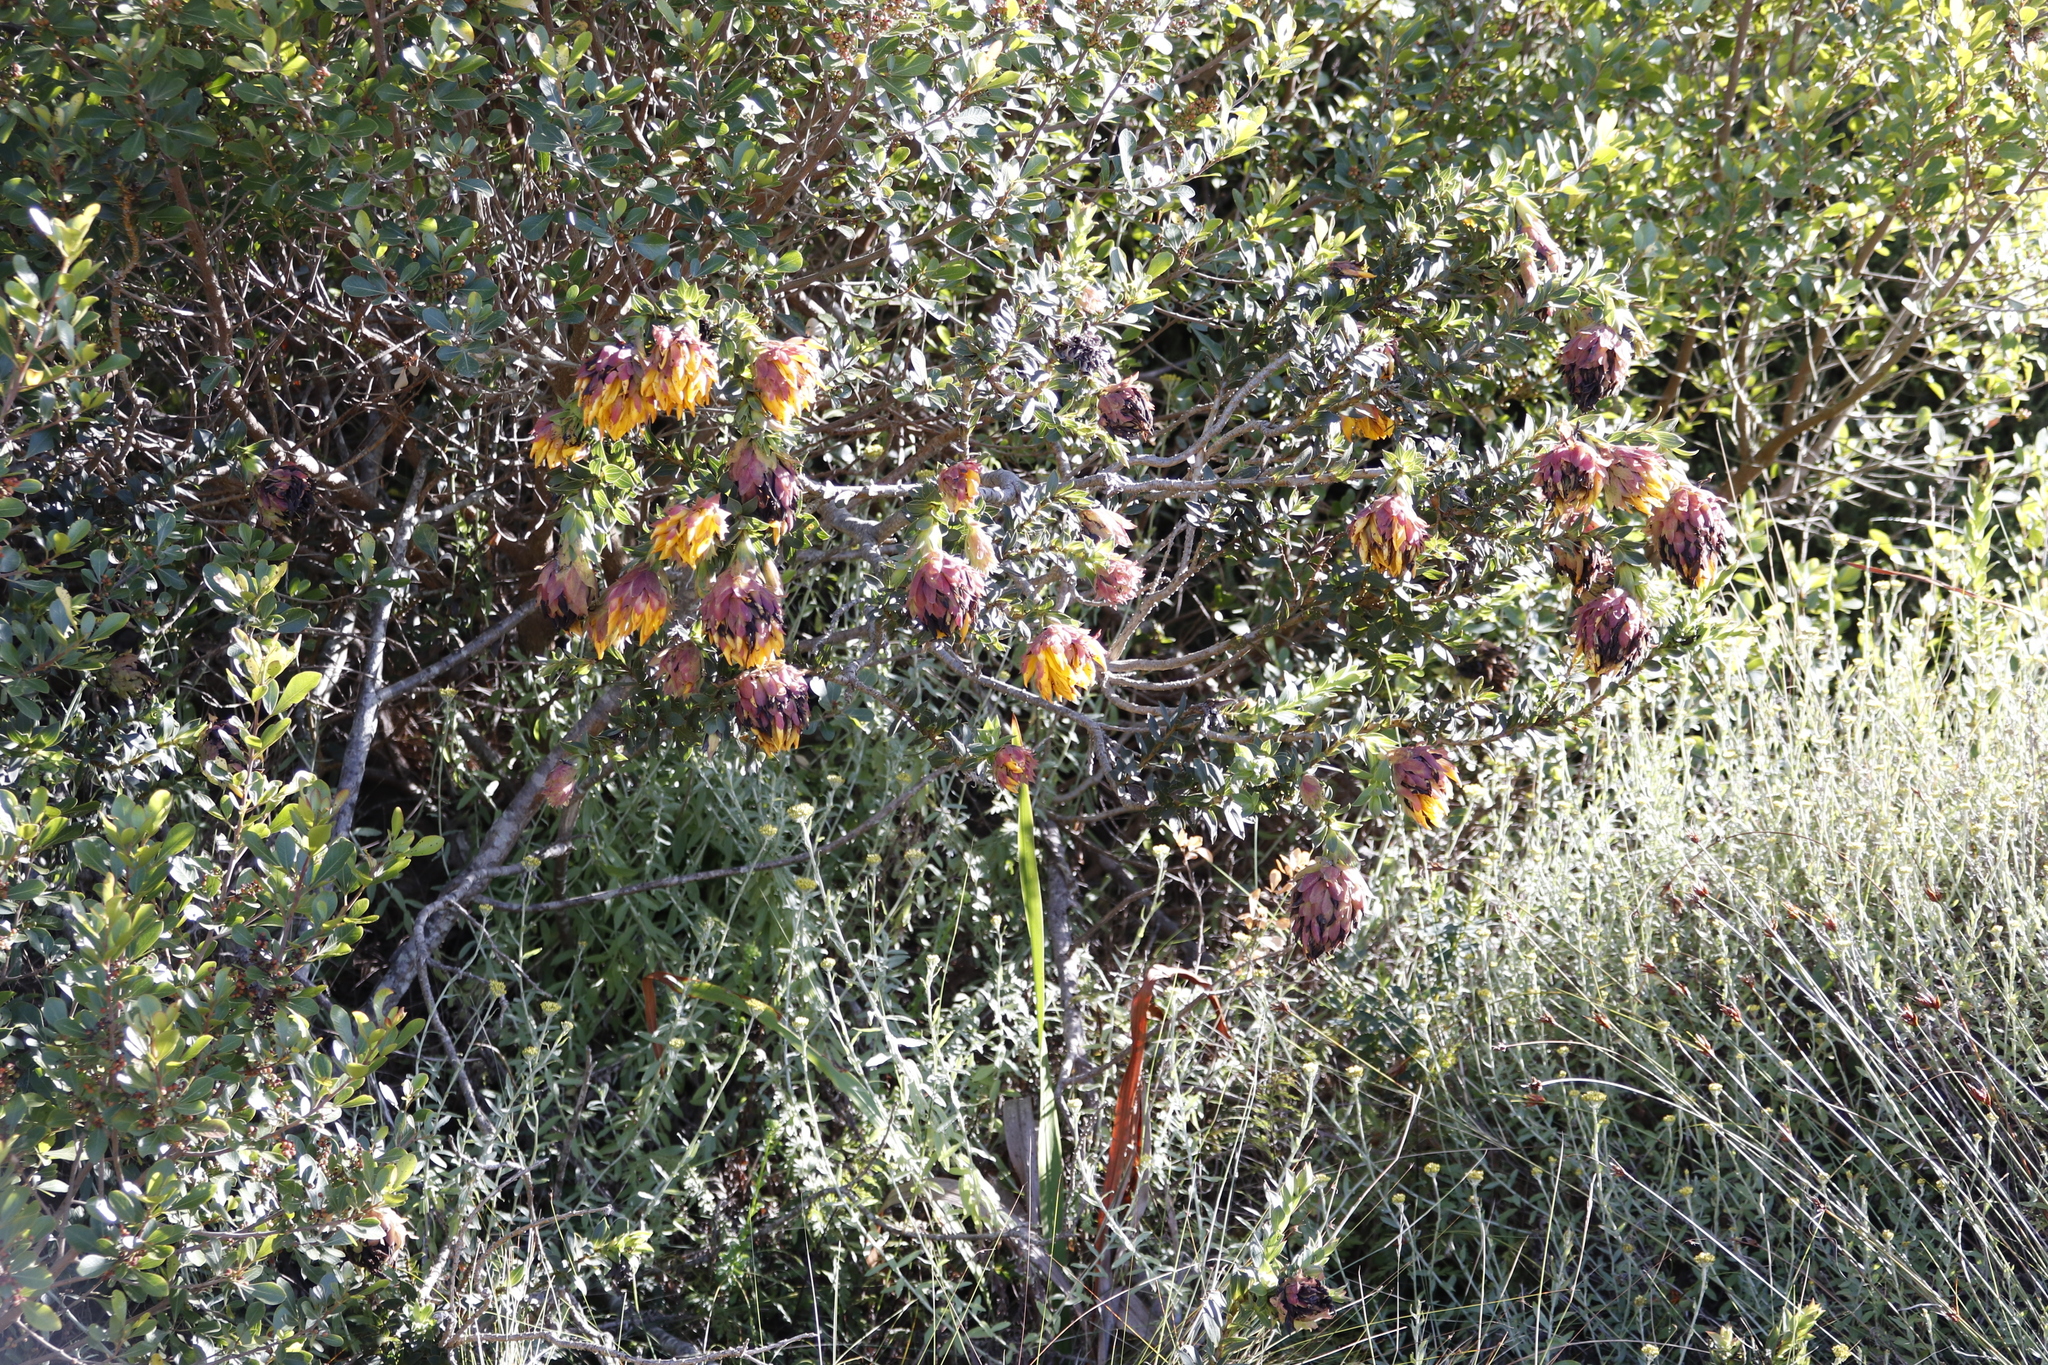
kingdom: Plantae
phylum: Tracheophyta
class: Magnoliopsida
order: Fabales
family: Fabaceae
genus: Liparia
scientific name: Liparia splendens
